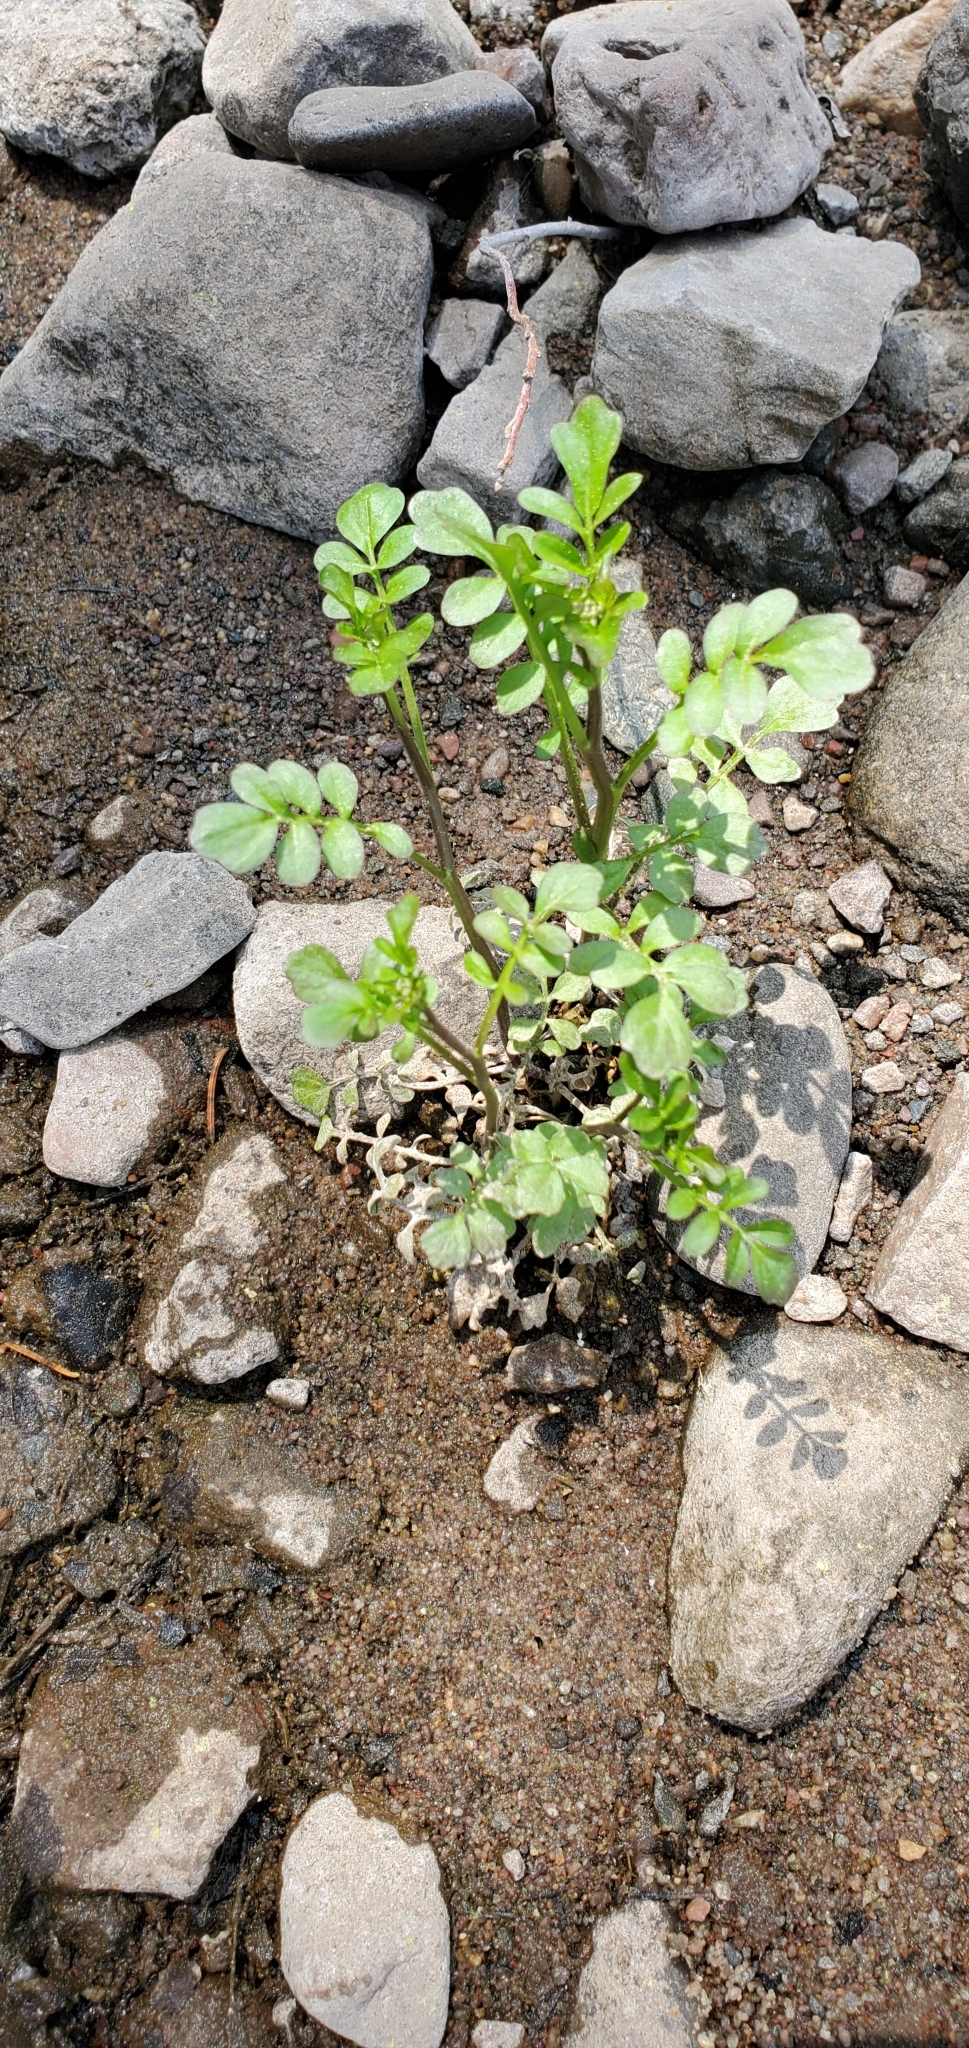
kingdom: Plantae
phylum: Tracheophyta
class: Magnoliopsida
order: Brassicales
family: Brassicaceae
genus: Cardamine
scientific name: Cardamine pensylvanica
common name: Pennsylvania bittercress
